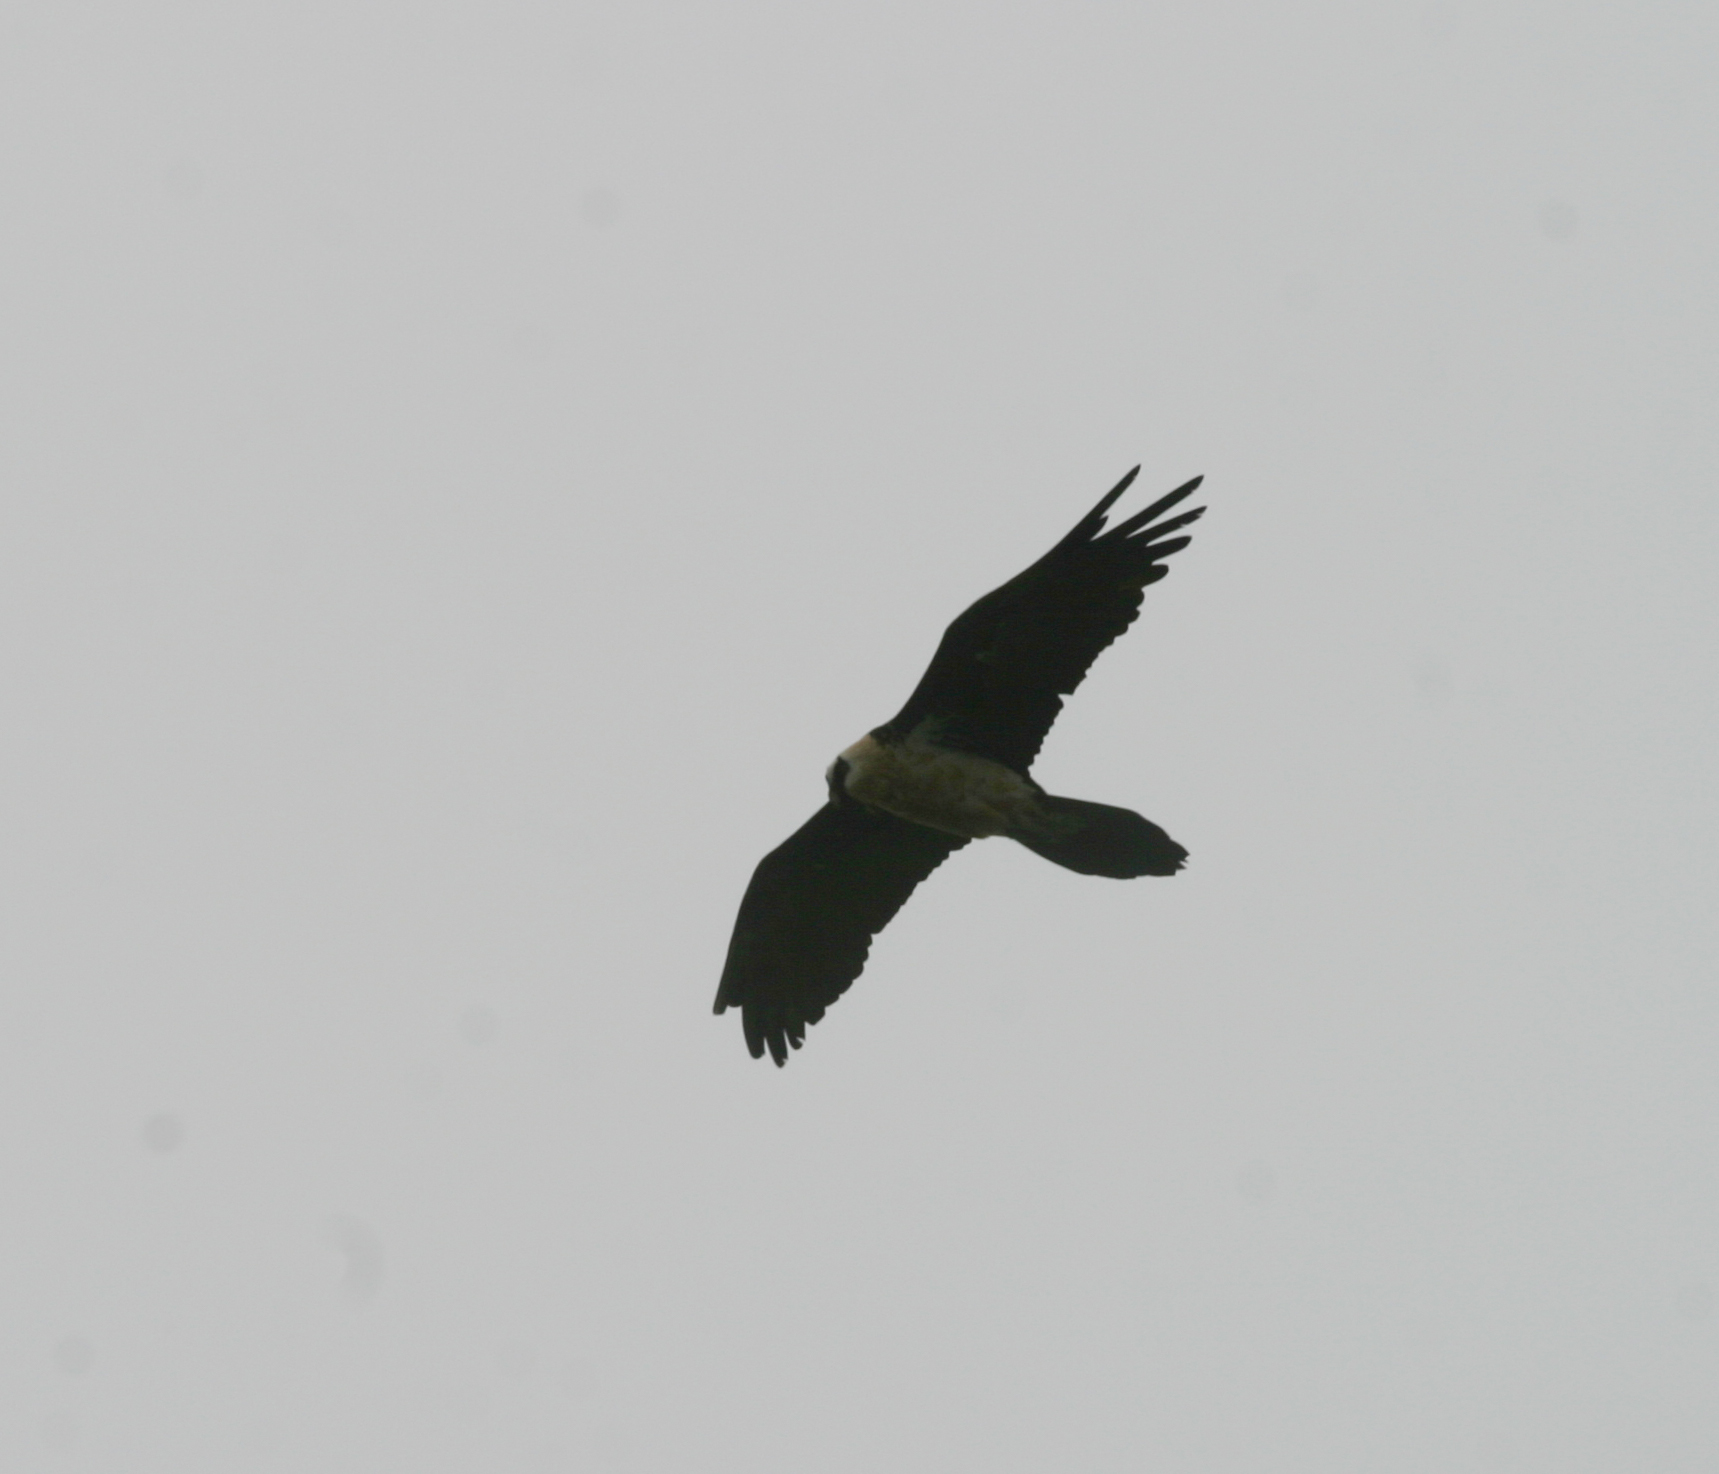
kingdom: Animalia
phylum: Chordata
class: Aves
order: Accipitriformes
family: Accipitridae
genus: Gypaetus
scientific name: Gypaetus barbatus
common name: Bearded vulture
